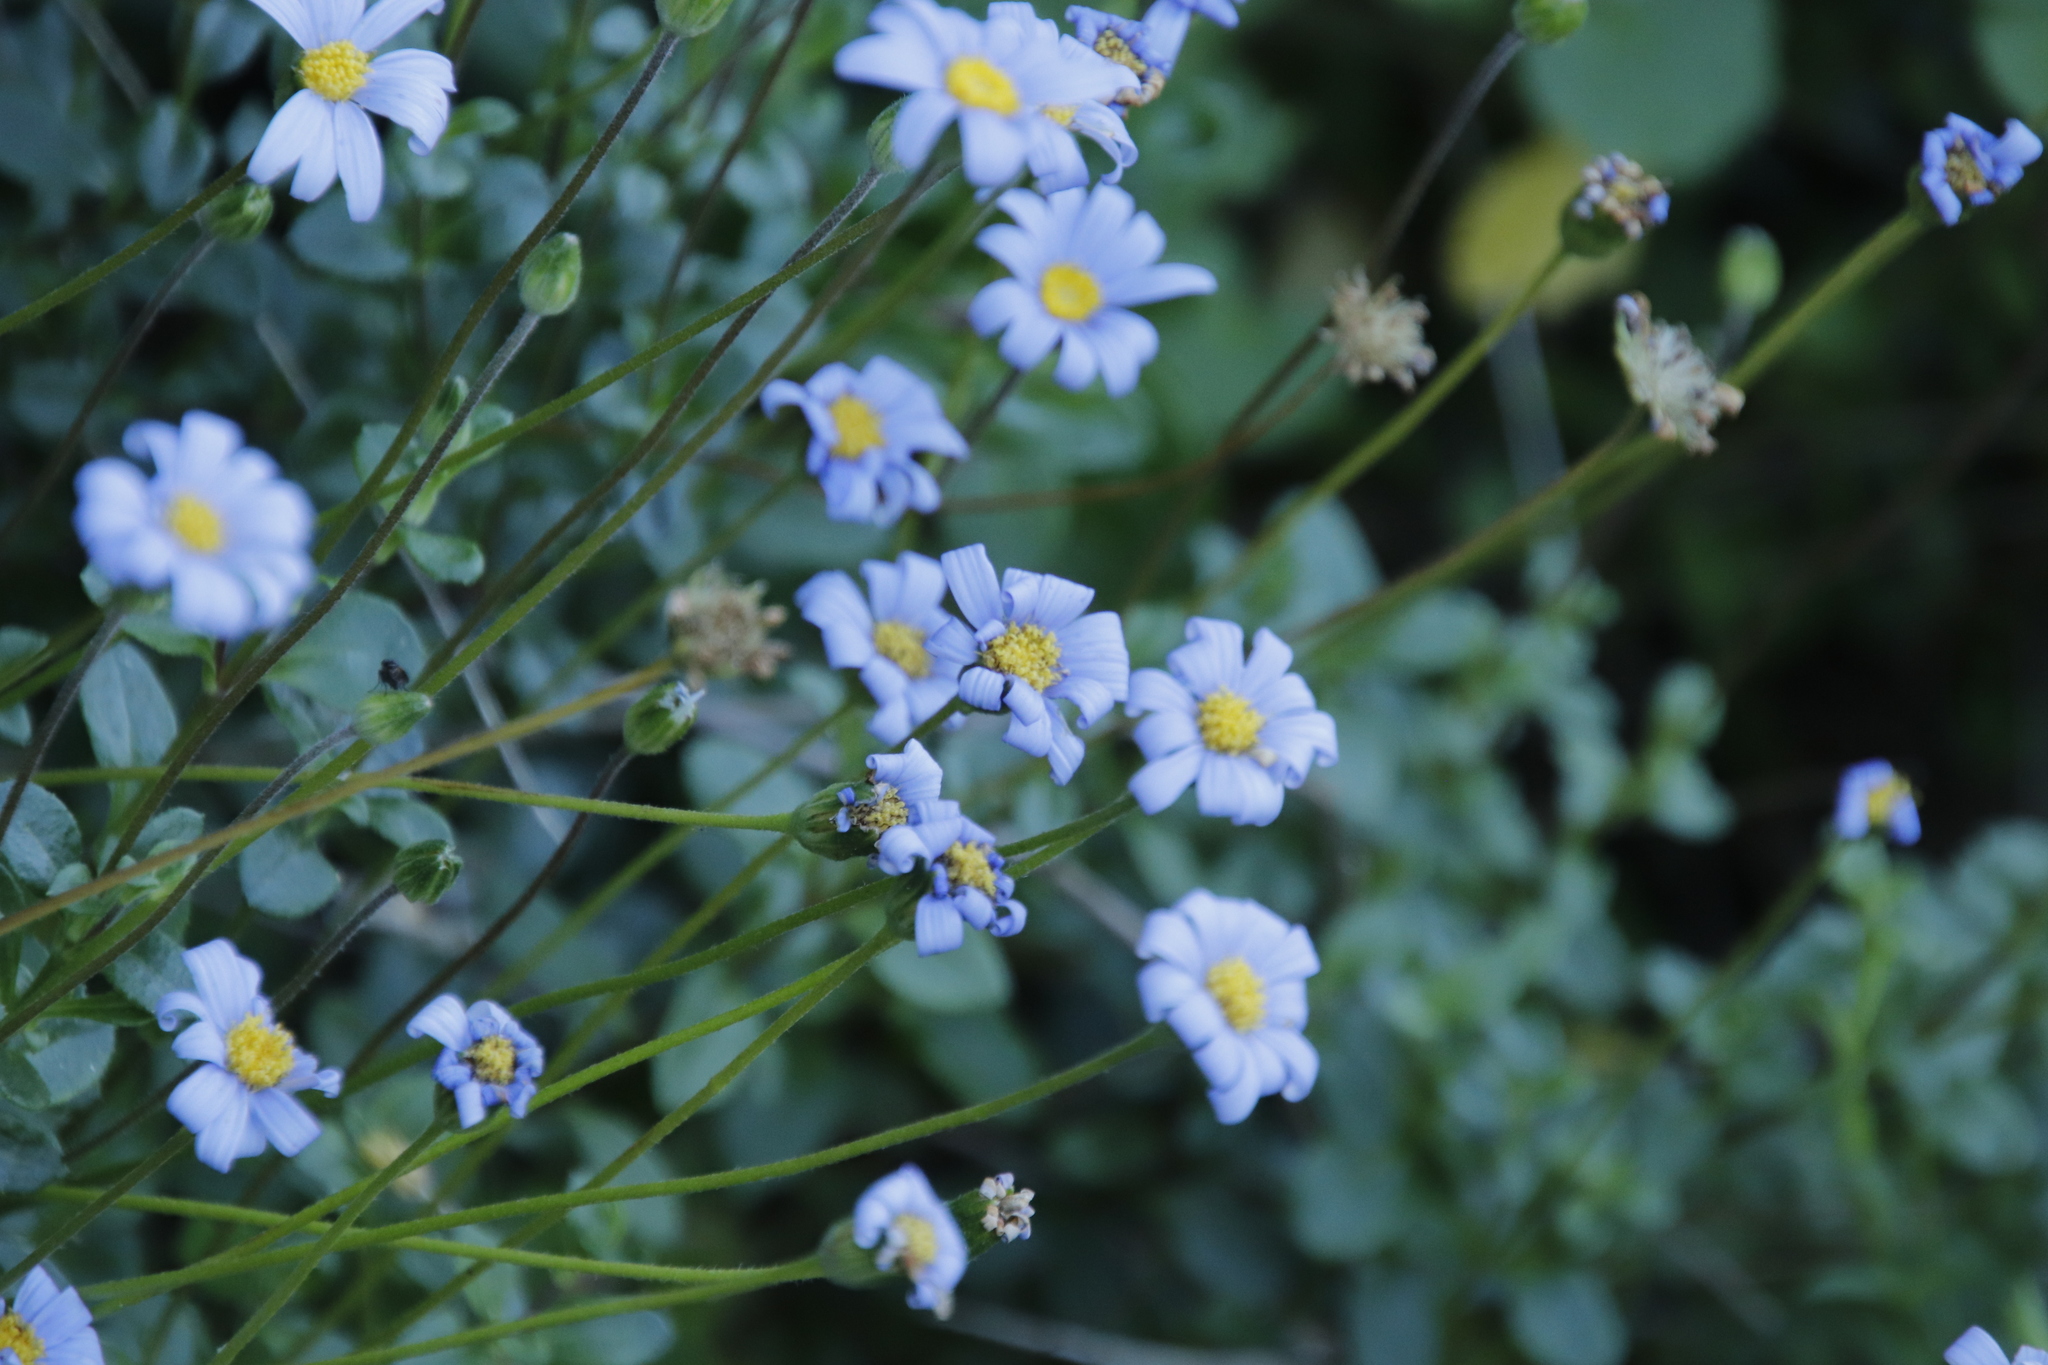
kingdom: Plantae
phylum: Tracheophyta
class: Magnoliopsida
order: Asterales
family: Asteraceae
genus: Felicia
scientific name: Felicia amelloides
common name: Blue marguerite
